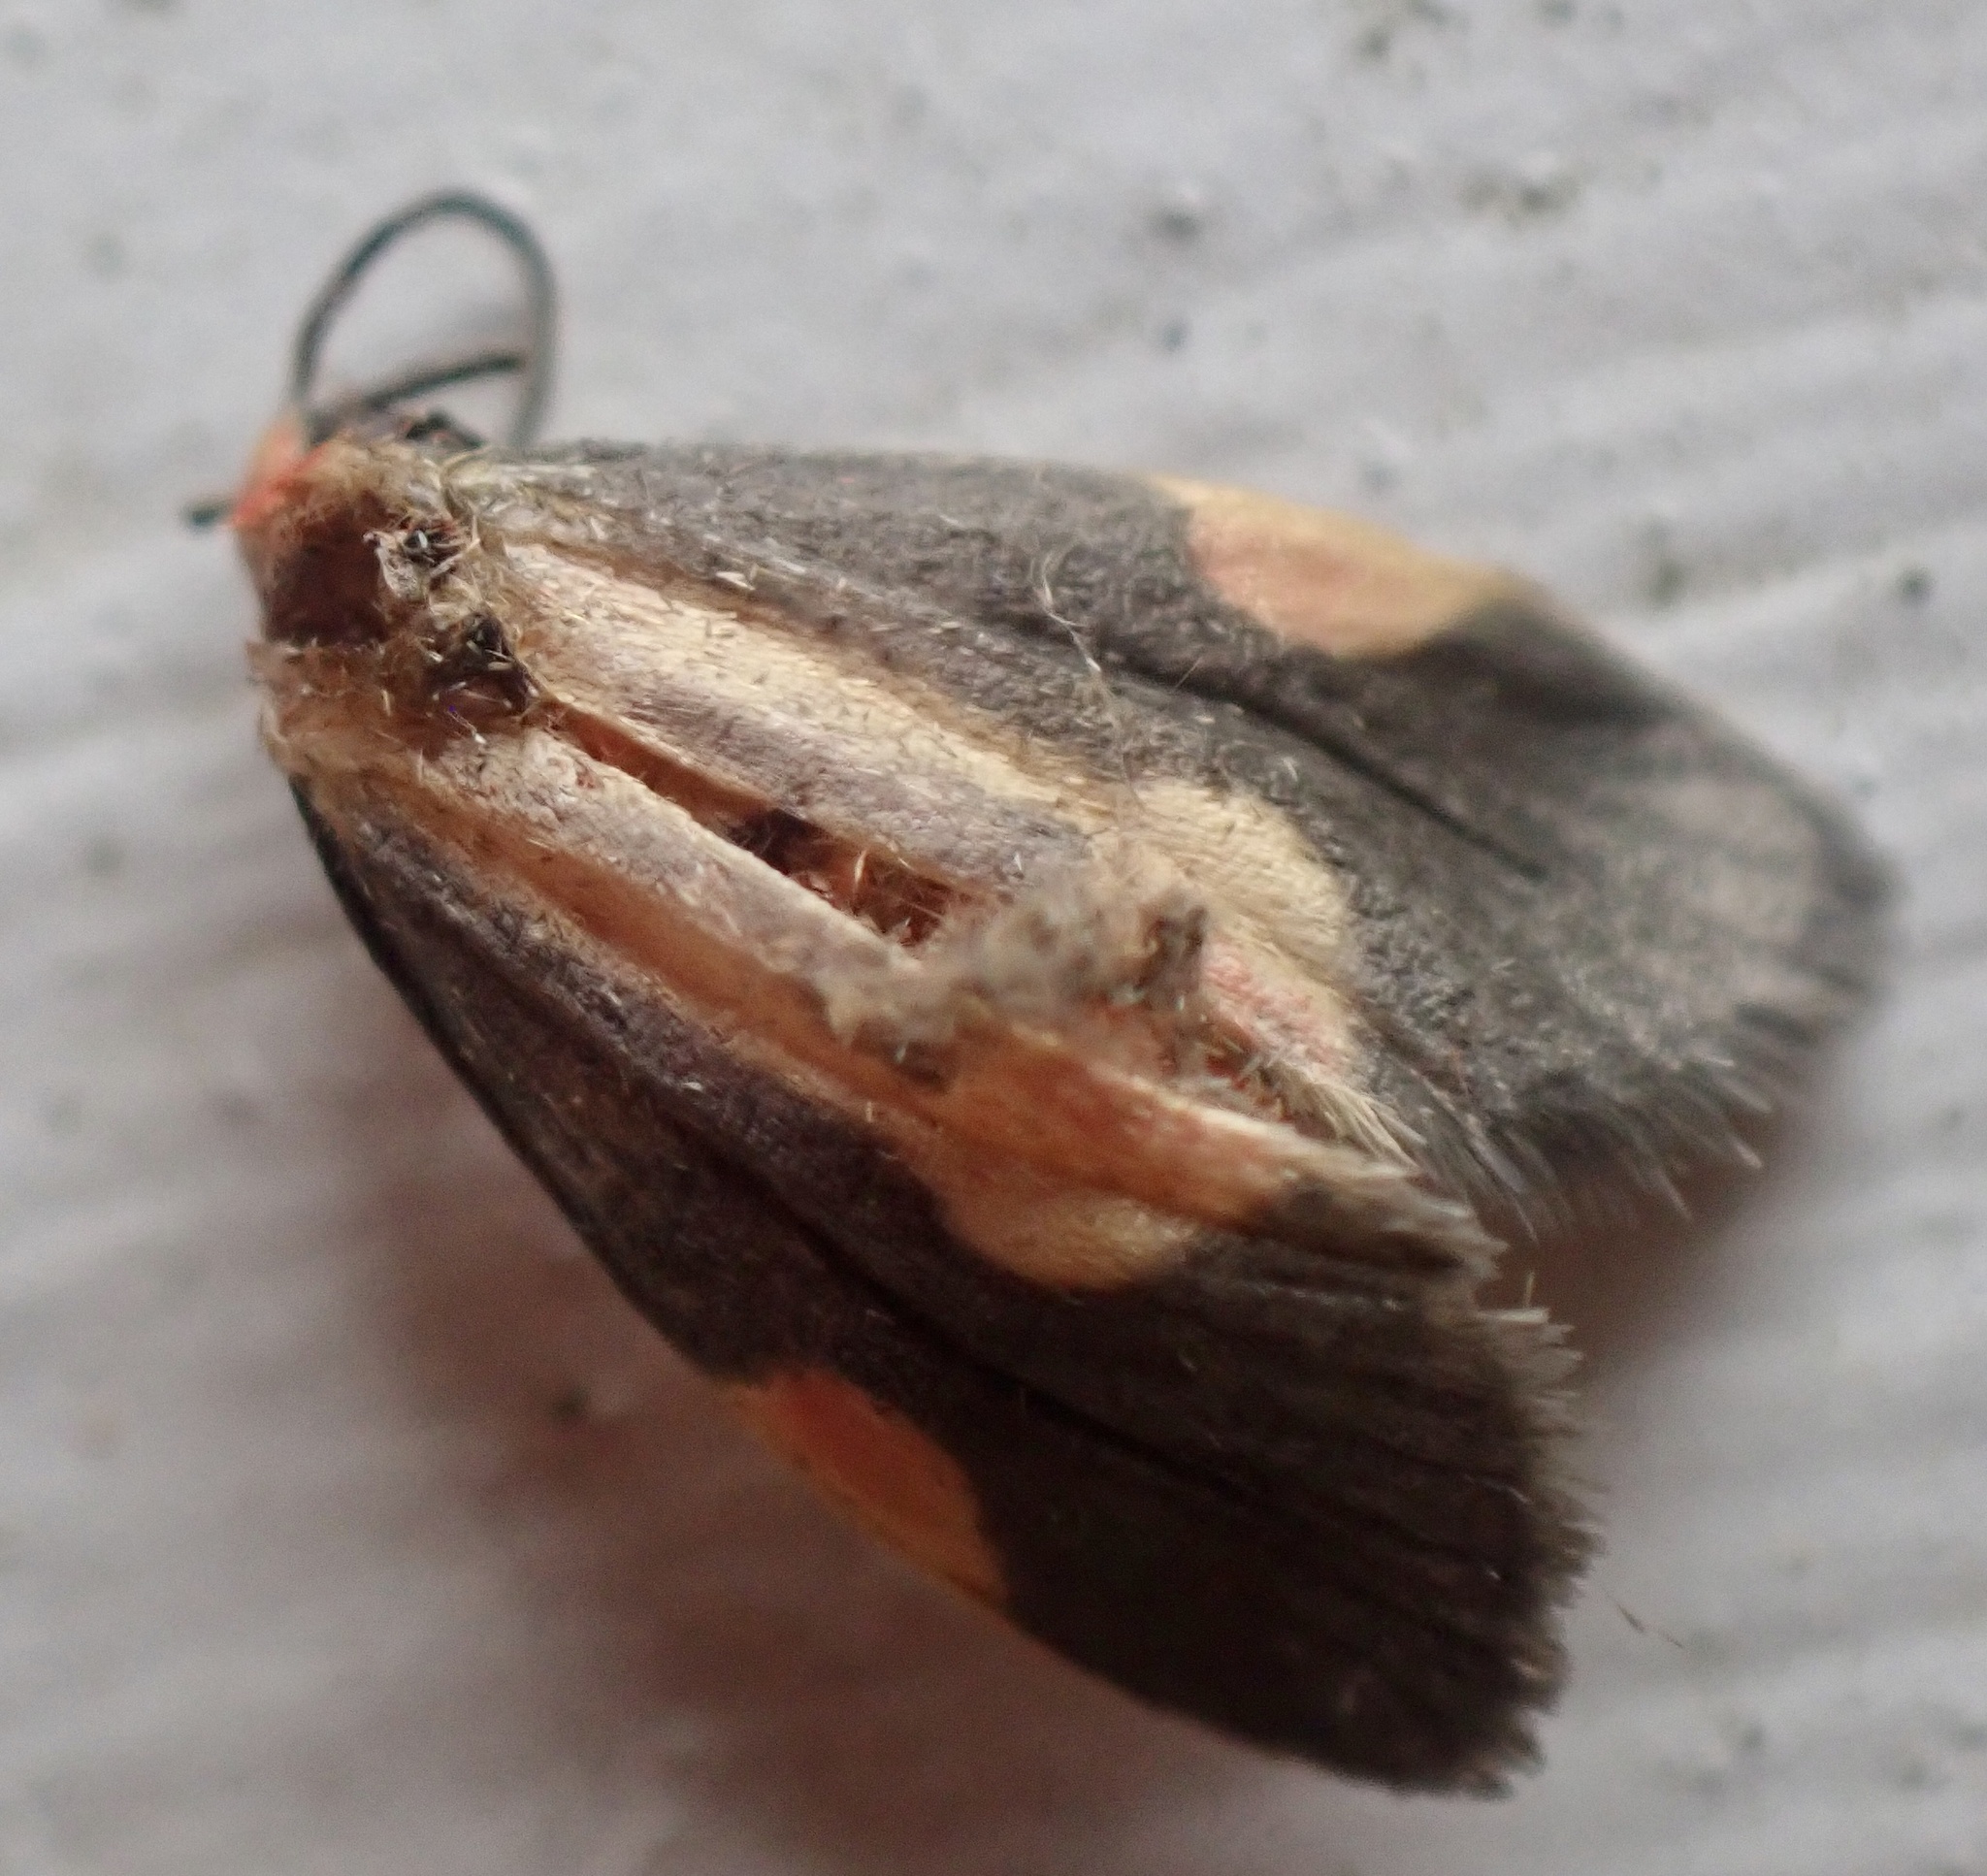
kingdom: Animalia
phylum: Arthropoda
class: Insecta
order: Lepidoptera
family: Erebidae
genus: Cisthene
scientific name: Cisthene packardii
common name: Packard's lichen moth
